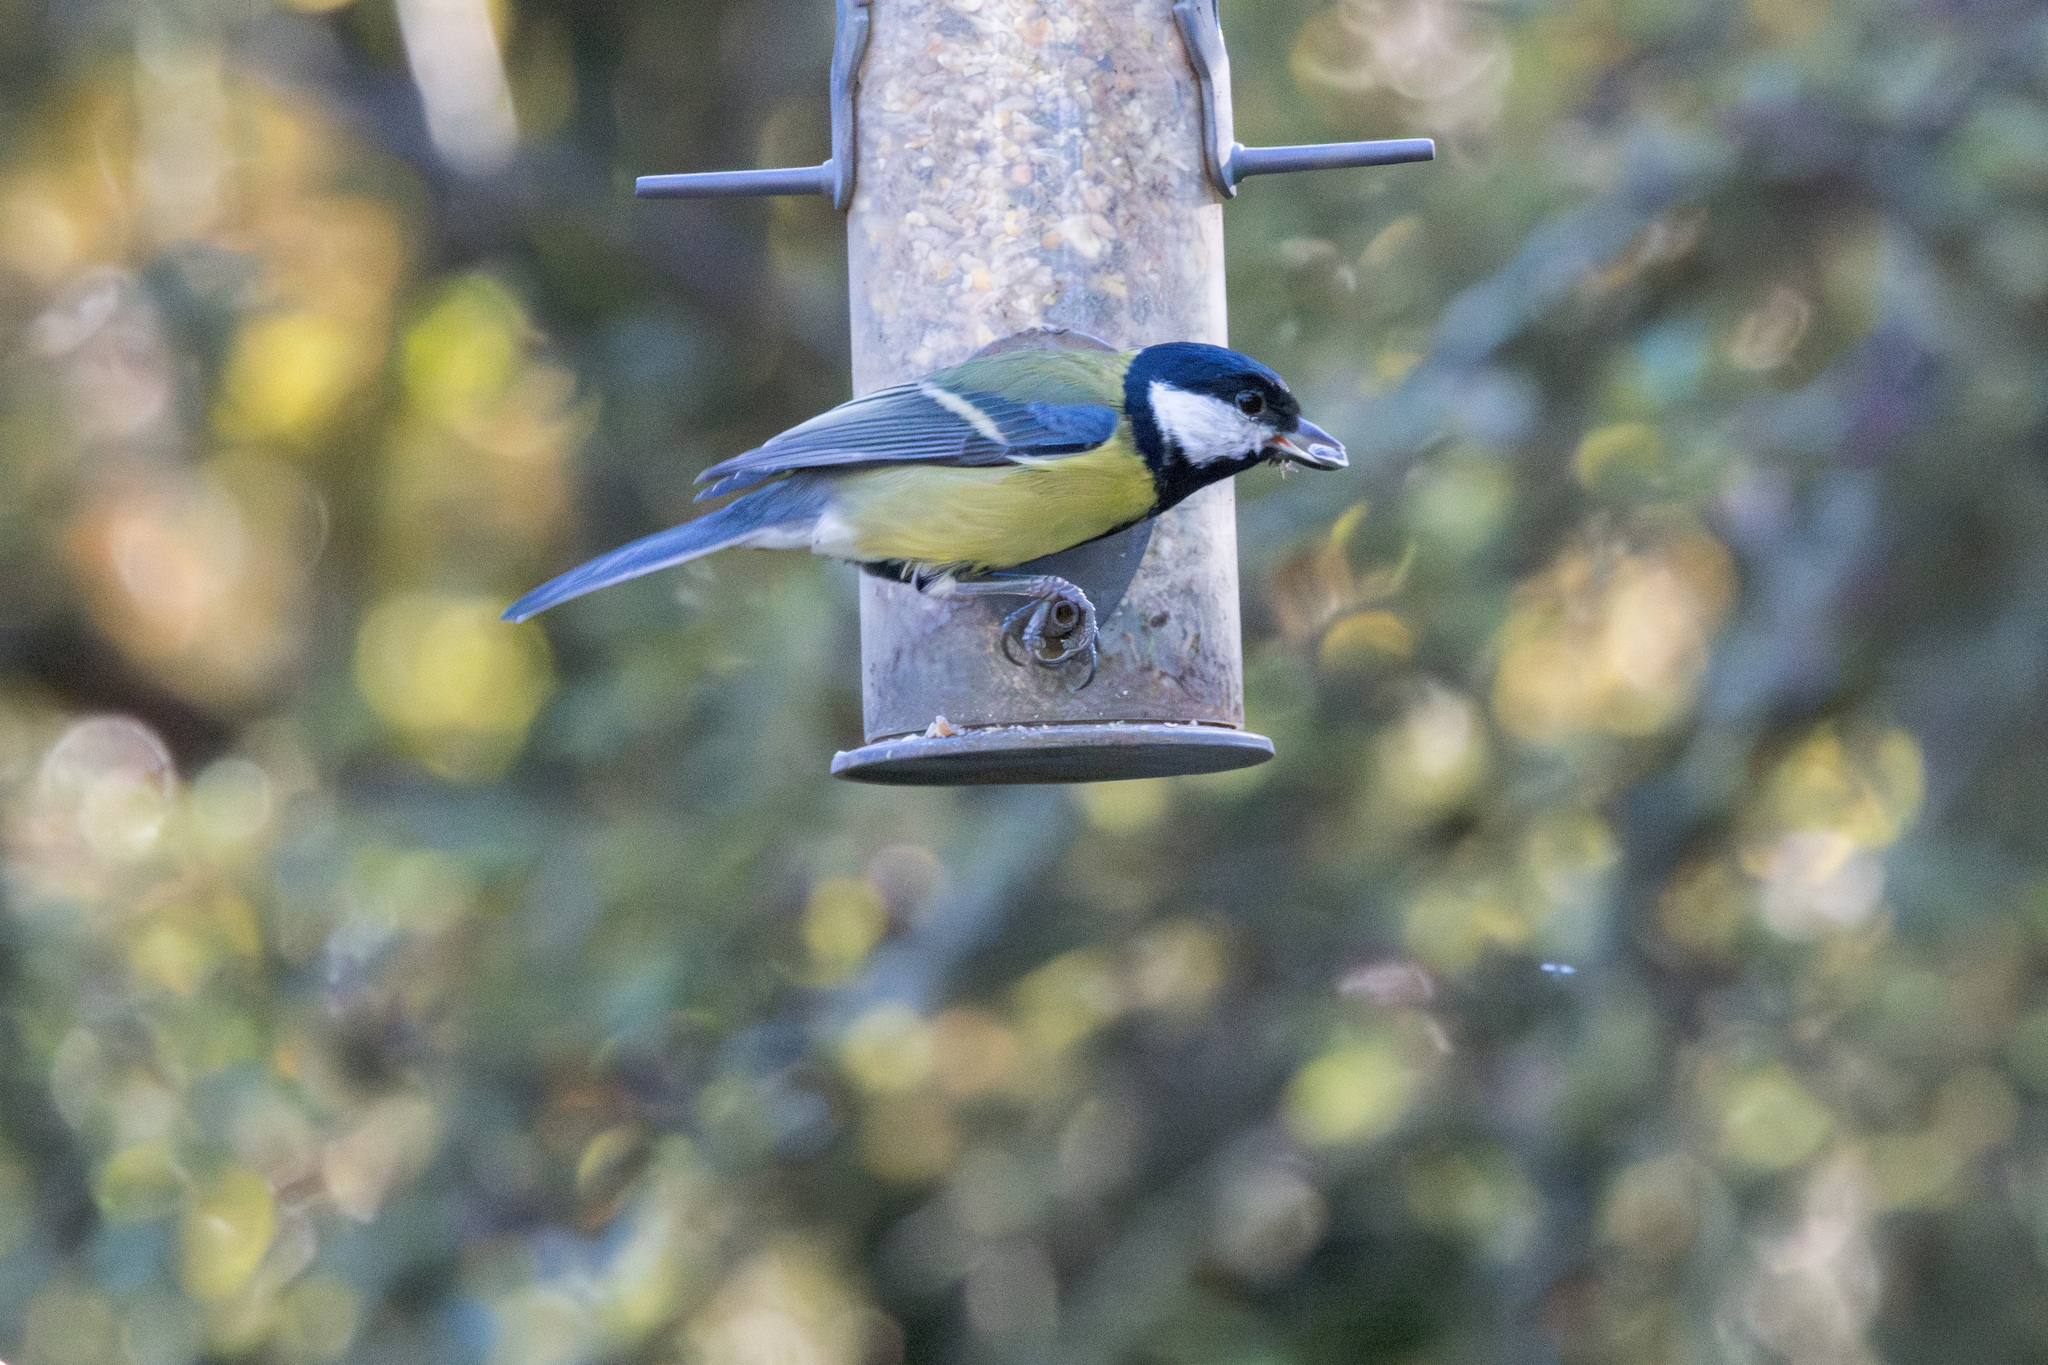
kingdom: Animalia
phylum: Chordata
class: Aves
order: Passeriformes
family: Paridae
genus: Parus
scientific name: Parus major
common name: Great tit
